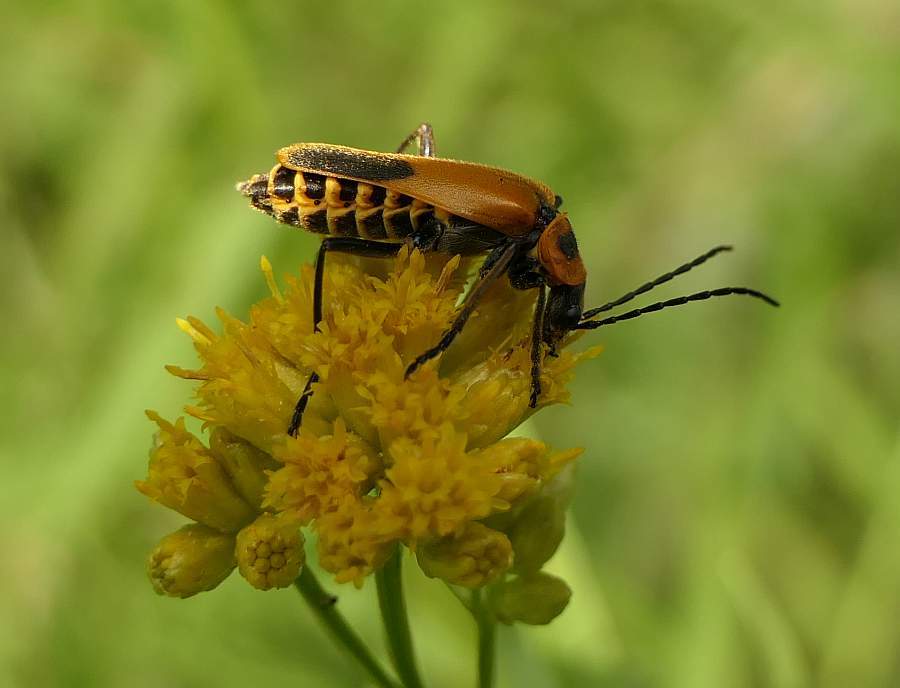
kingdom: Animalia
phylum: Arthropoda
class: Insecta
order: Coleoptera
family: Cantharidae
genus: Chauliognathus
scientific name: Chauliognathus pensylvanicus
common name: Goldenrod soldier beetle
